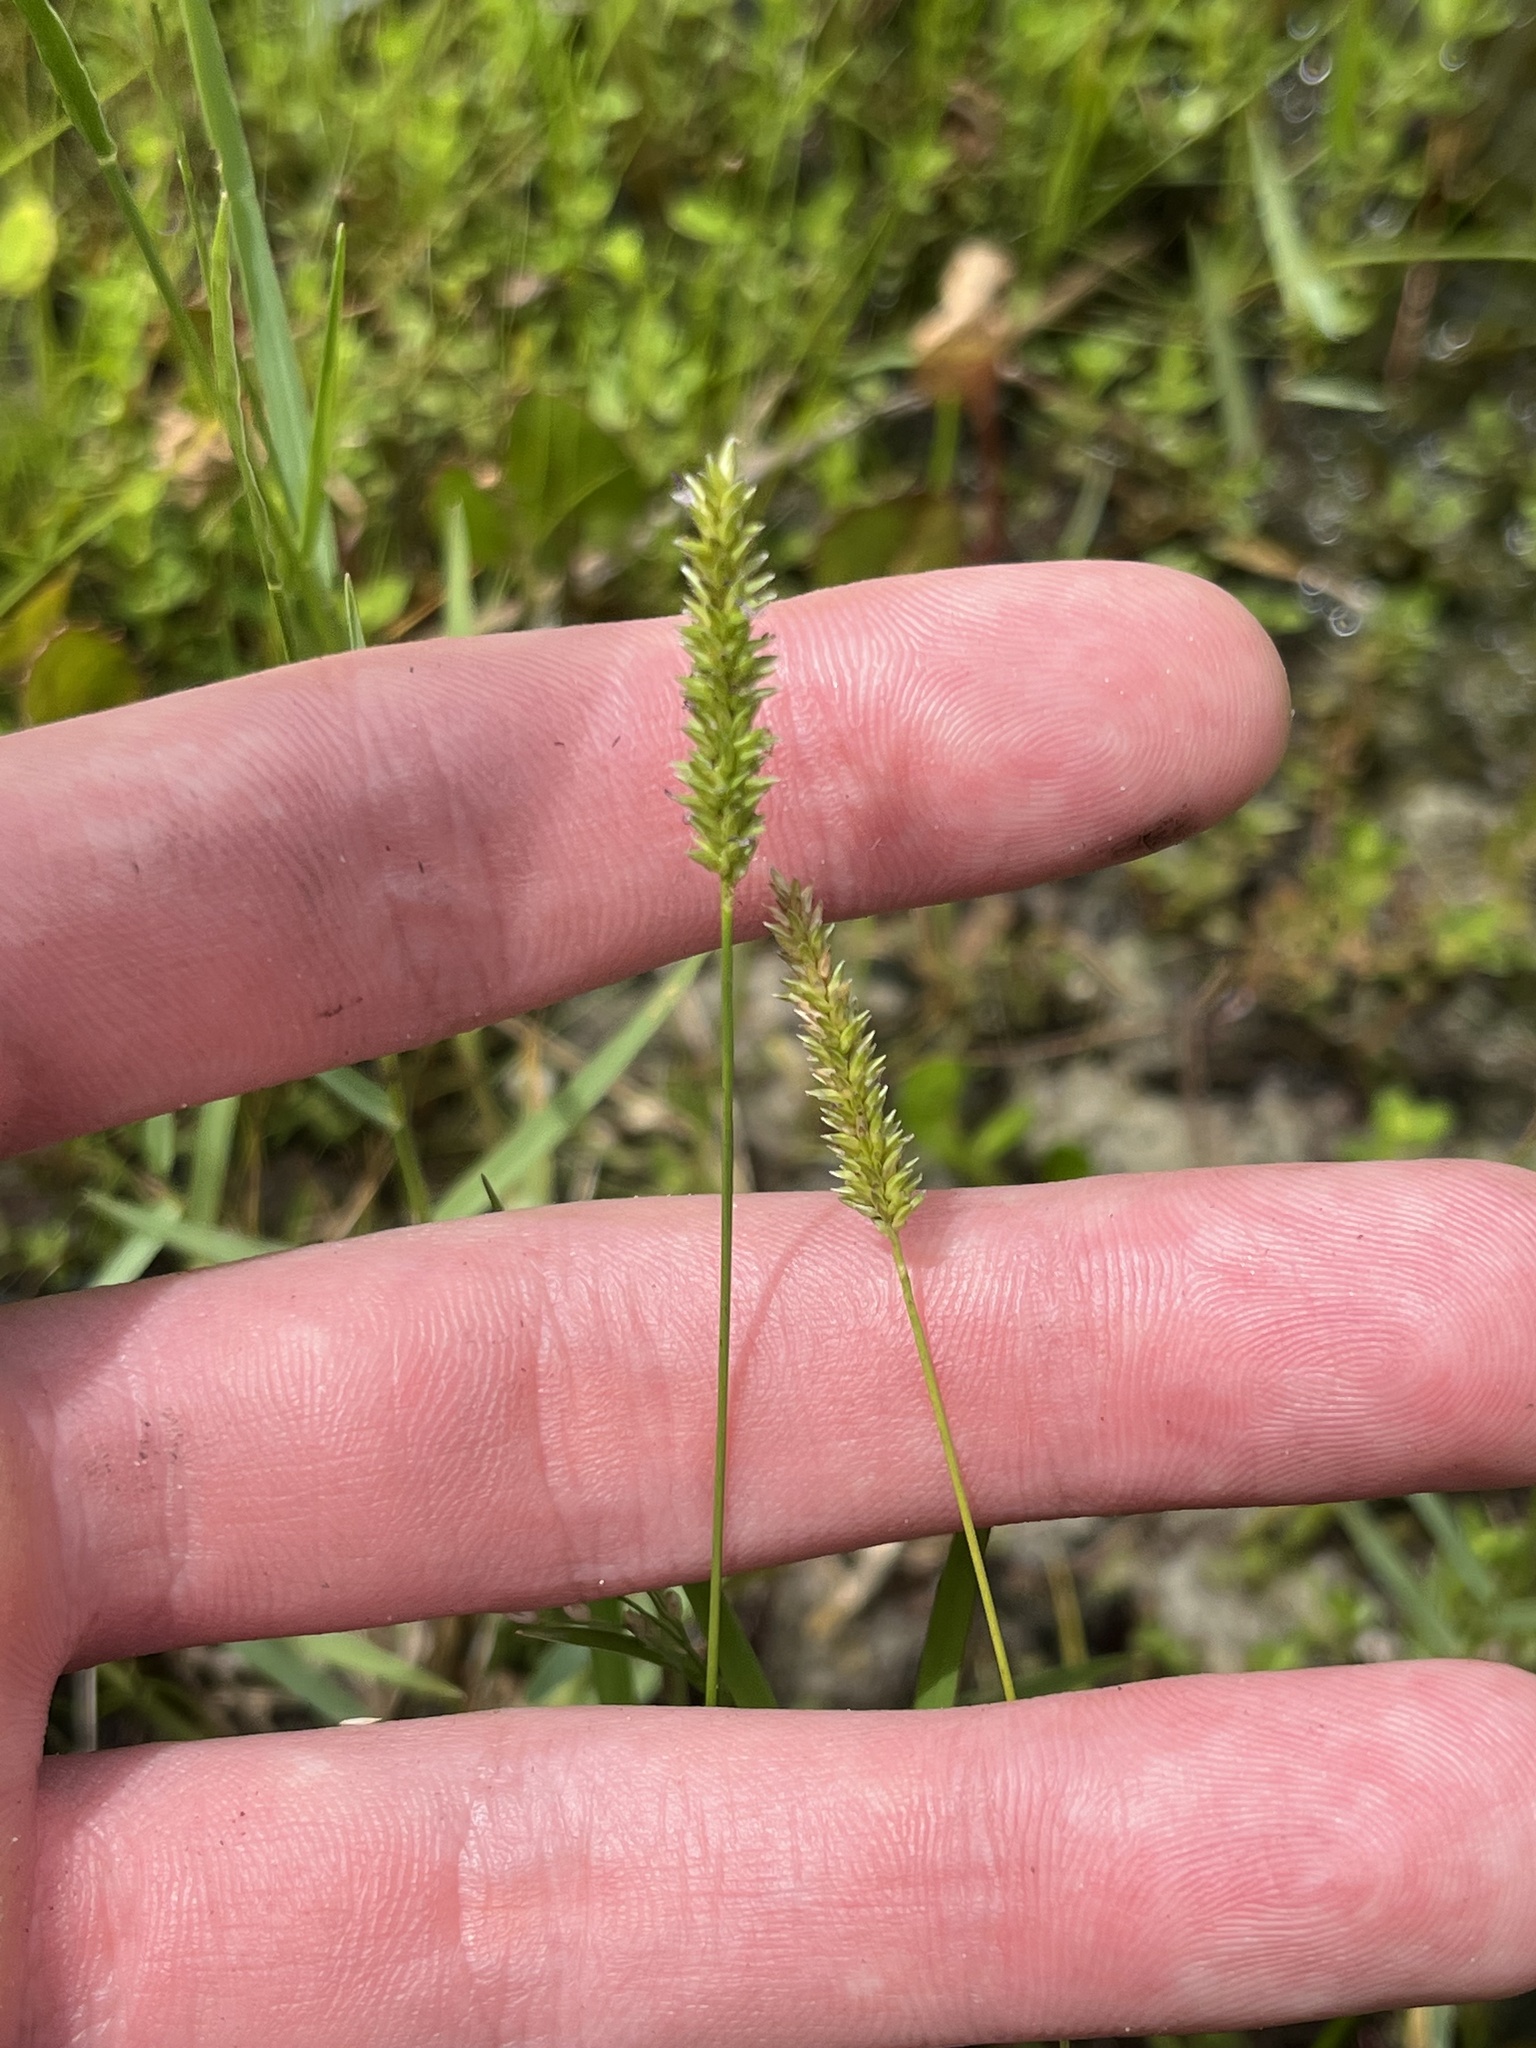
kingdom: Plantae
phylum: Tracheophyta
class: Liliopsida
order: Poales
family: Poaceae
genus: Sacciolepis
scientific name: Sacciolepis indica
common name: Glenwoodgrass
